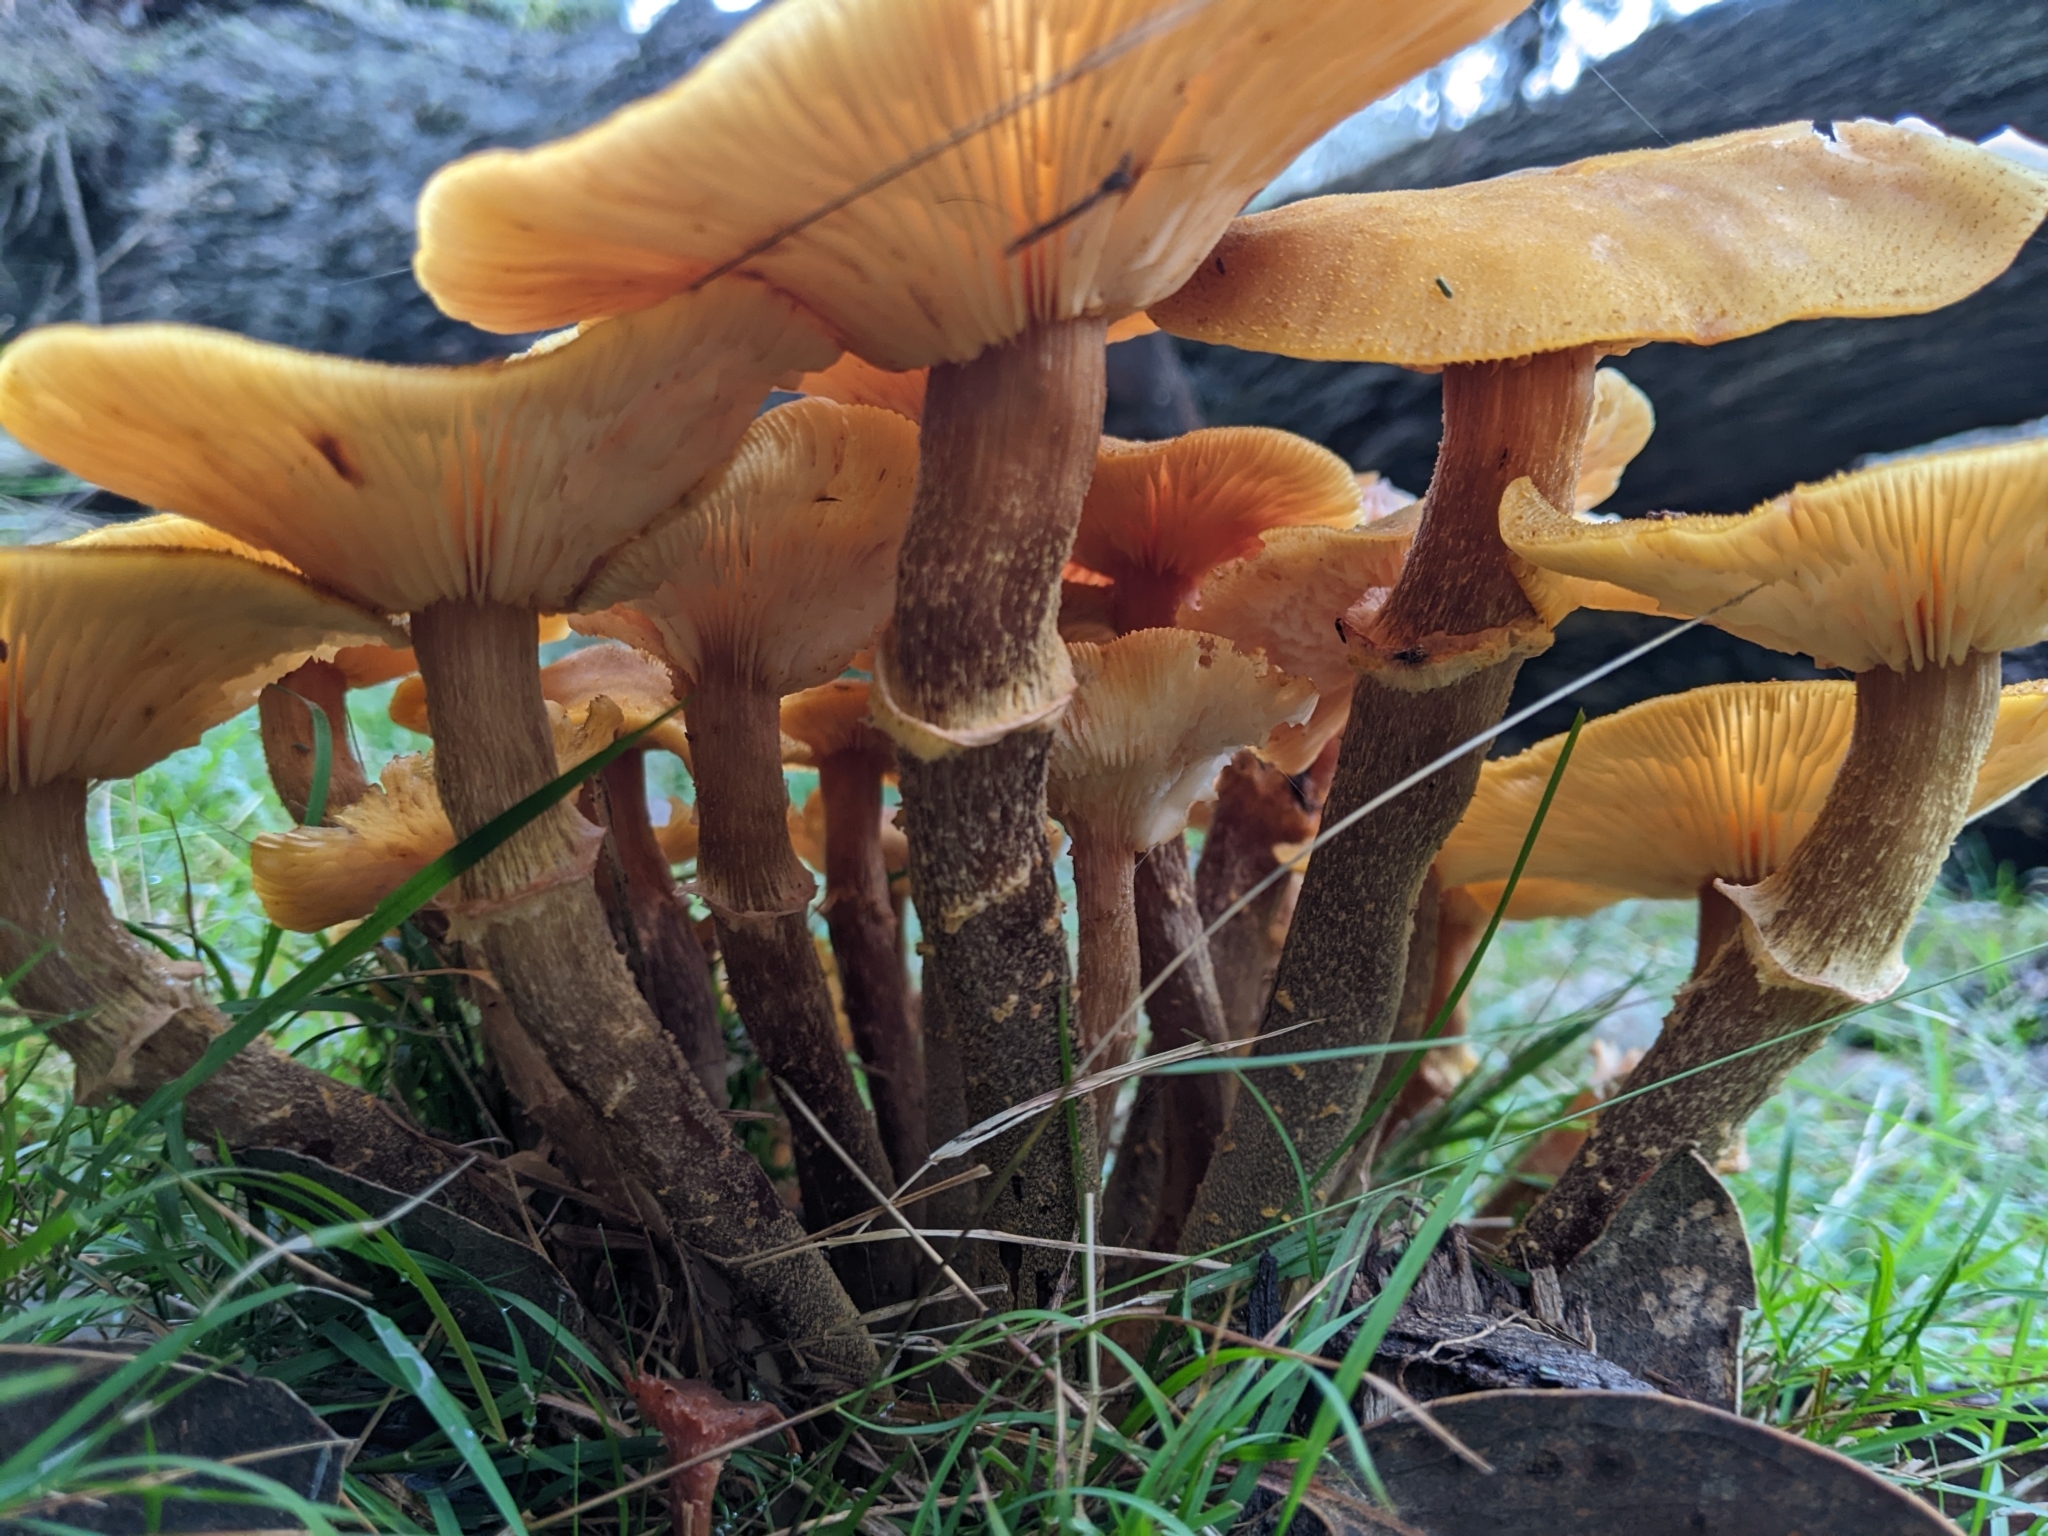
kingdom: Fungi
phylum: Basidiomycota
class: Agaricomycetes
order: Agaricales
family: Physalacriaceae
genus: Armillaria
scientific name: Armillaria luteobubalina
